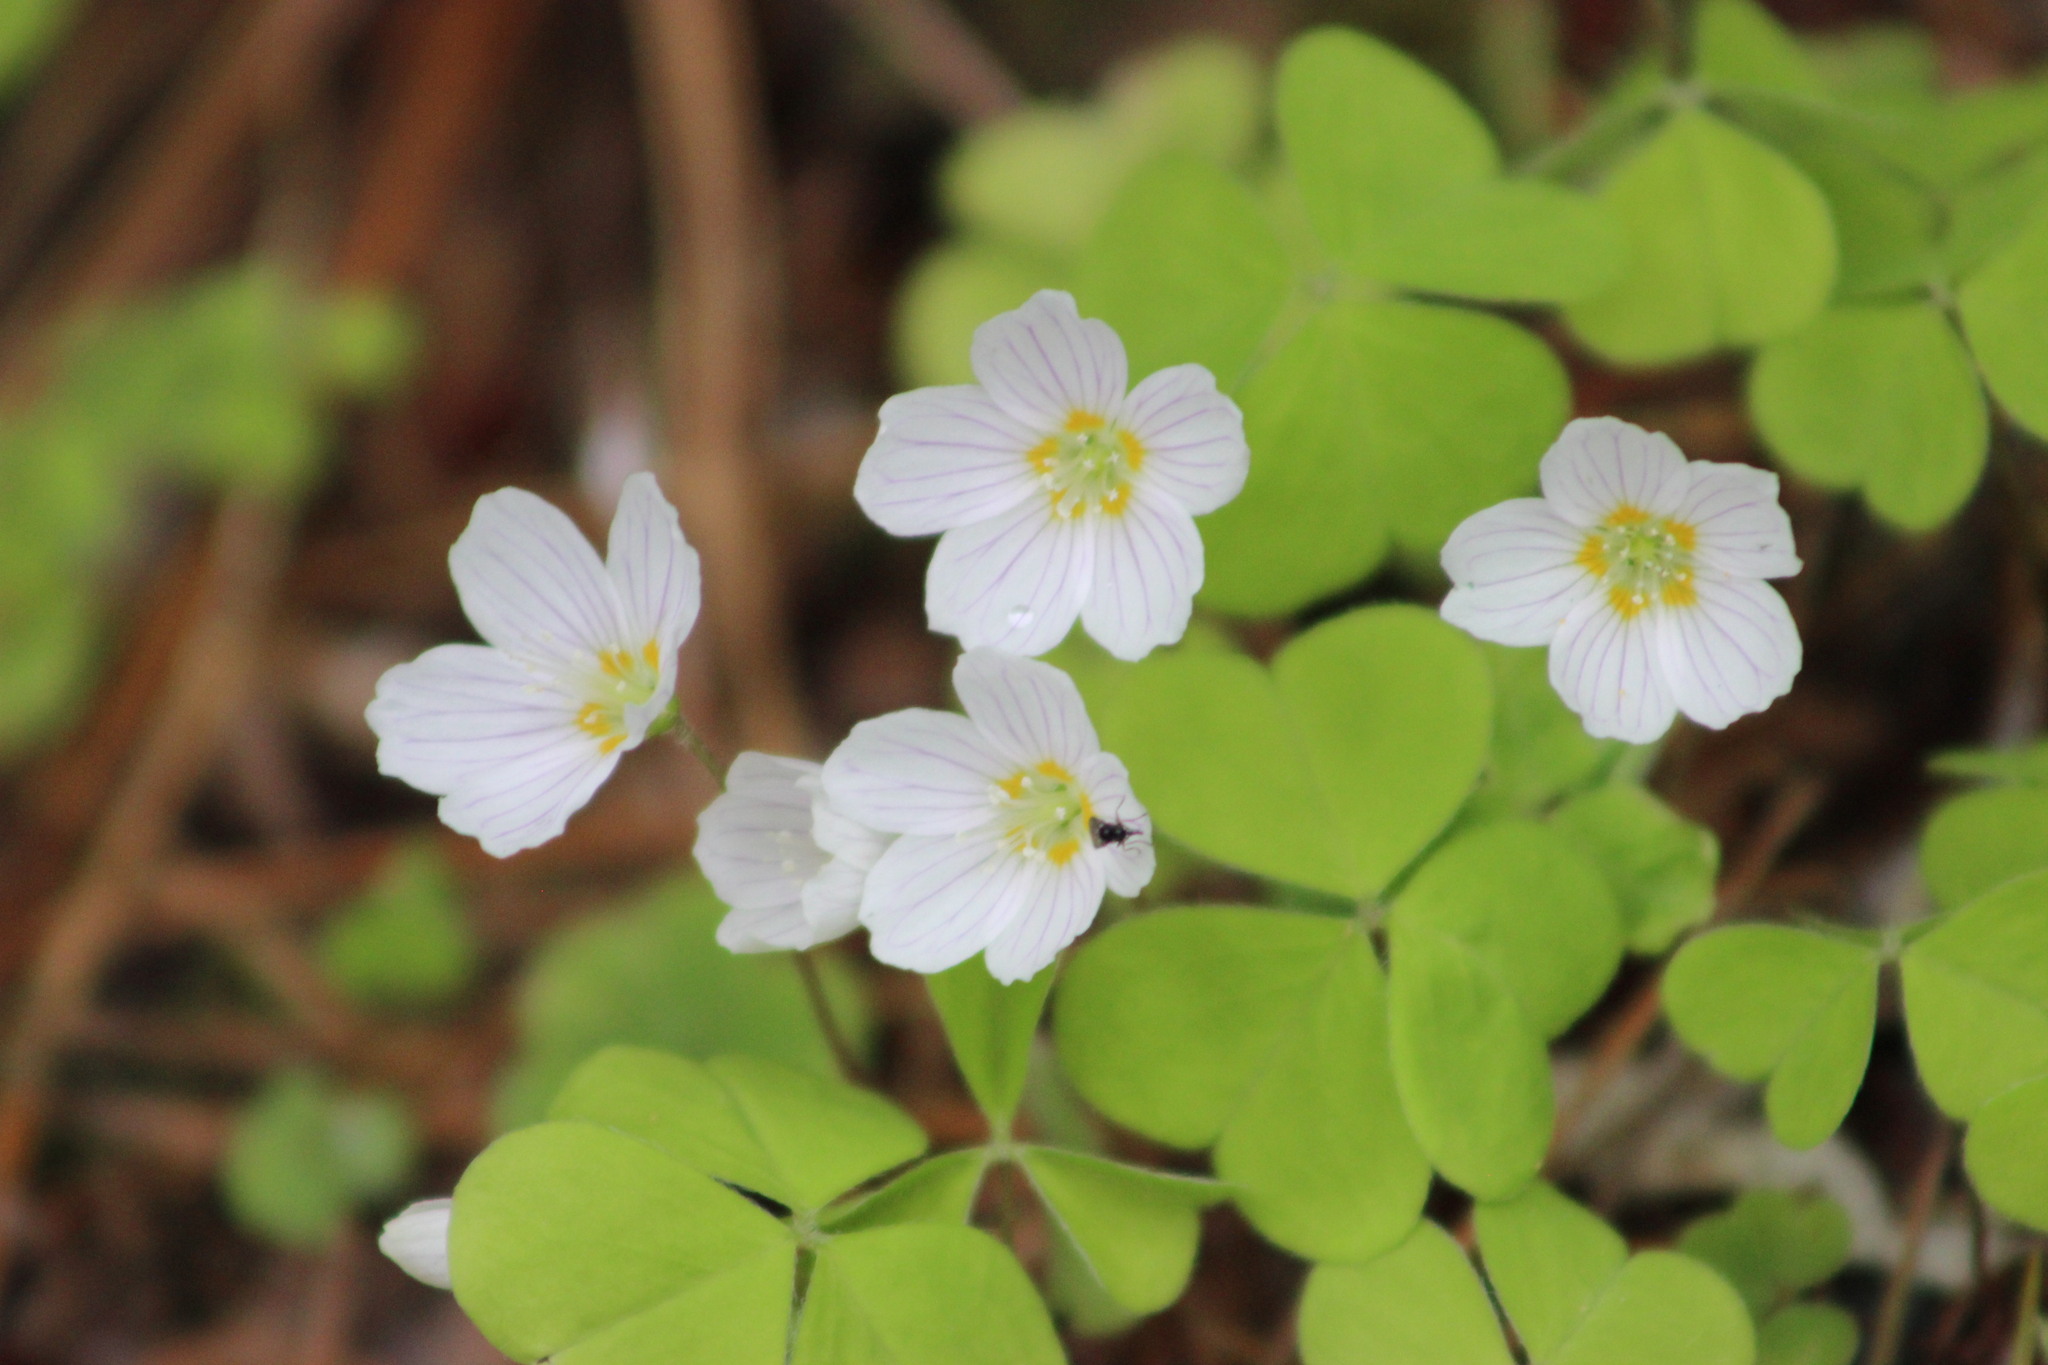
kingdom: Plantae
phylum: Tracheophyta
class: Magnoliopsida
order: Oxalidales
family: Oxalidaceae
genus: Oxalis
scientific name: Oxalis acetosella
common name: Wood-sorrel
